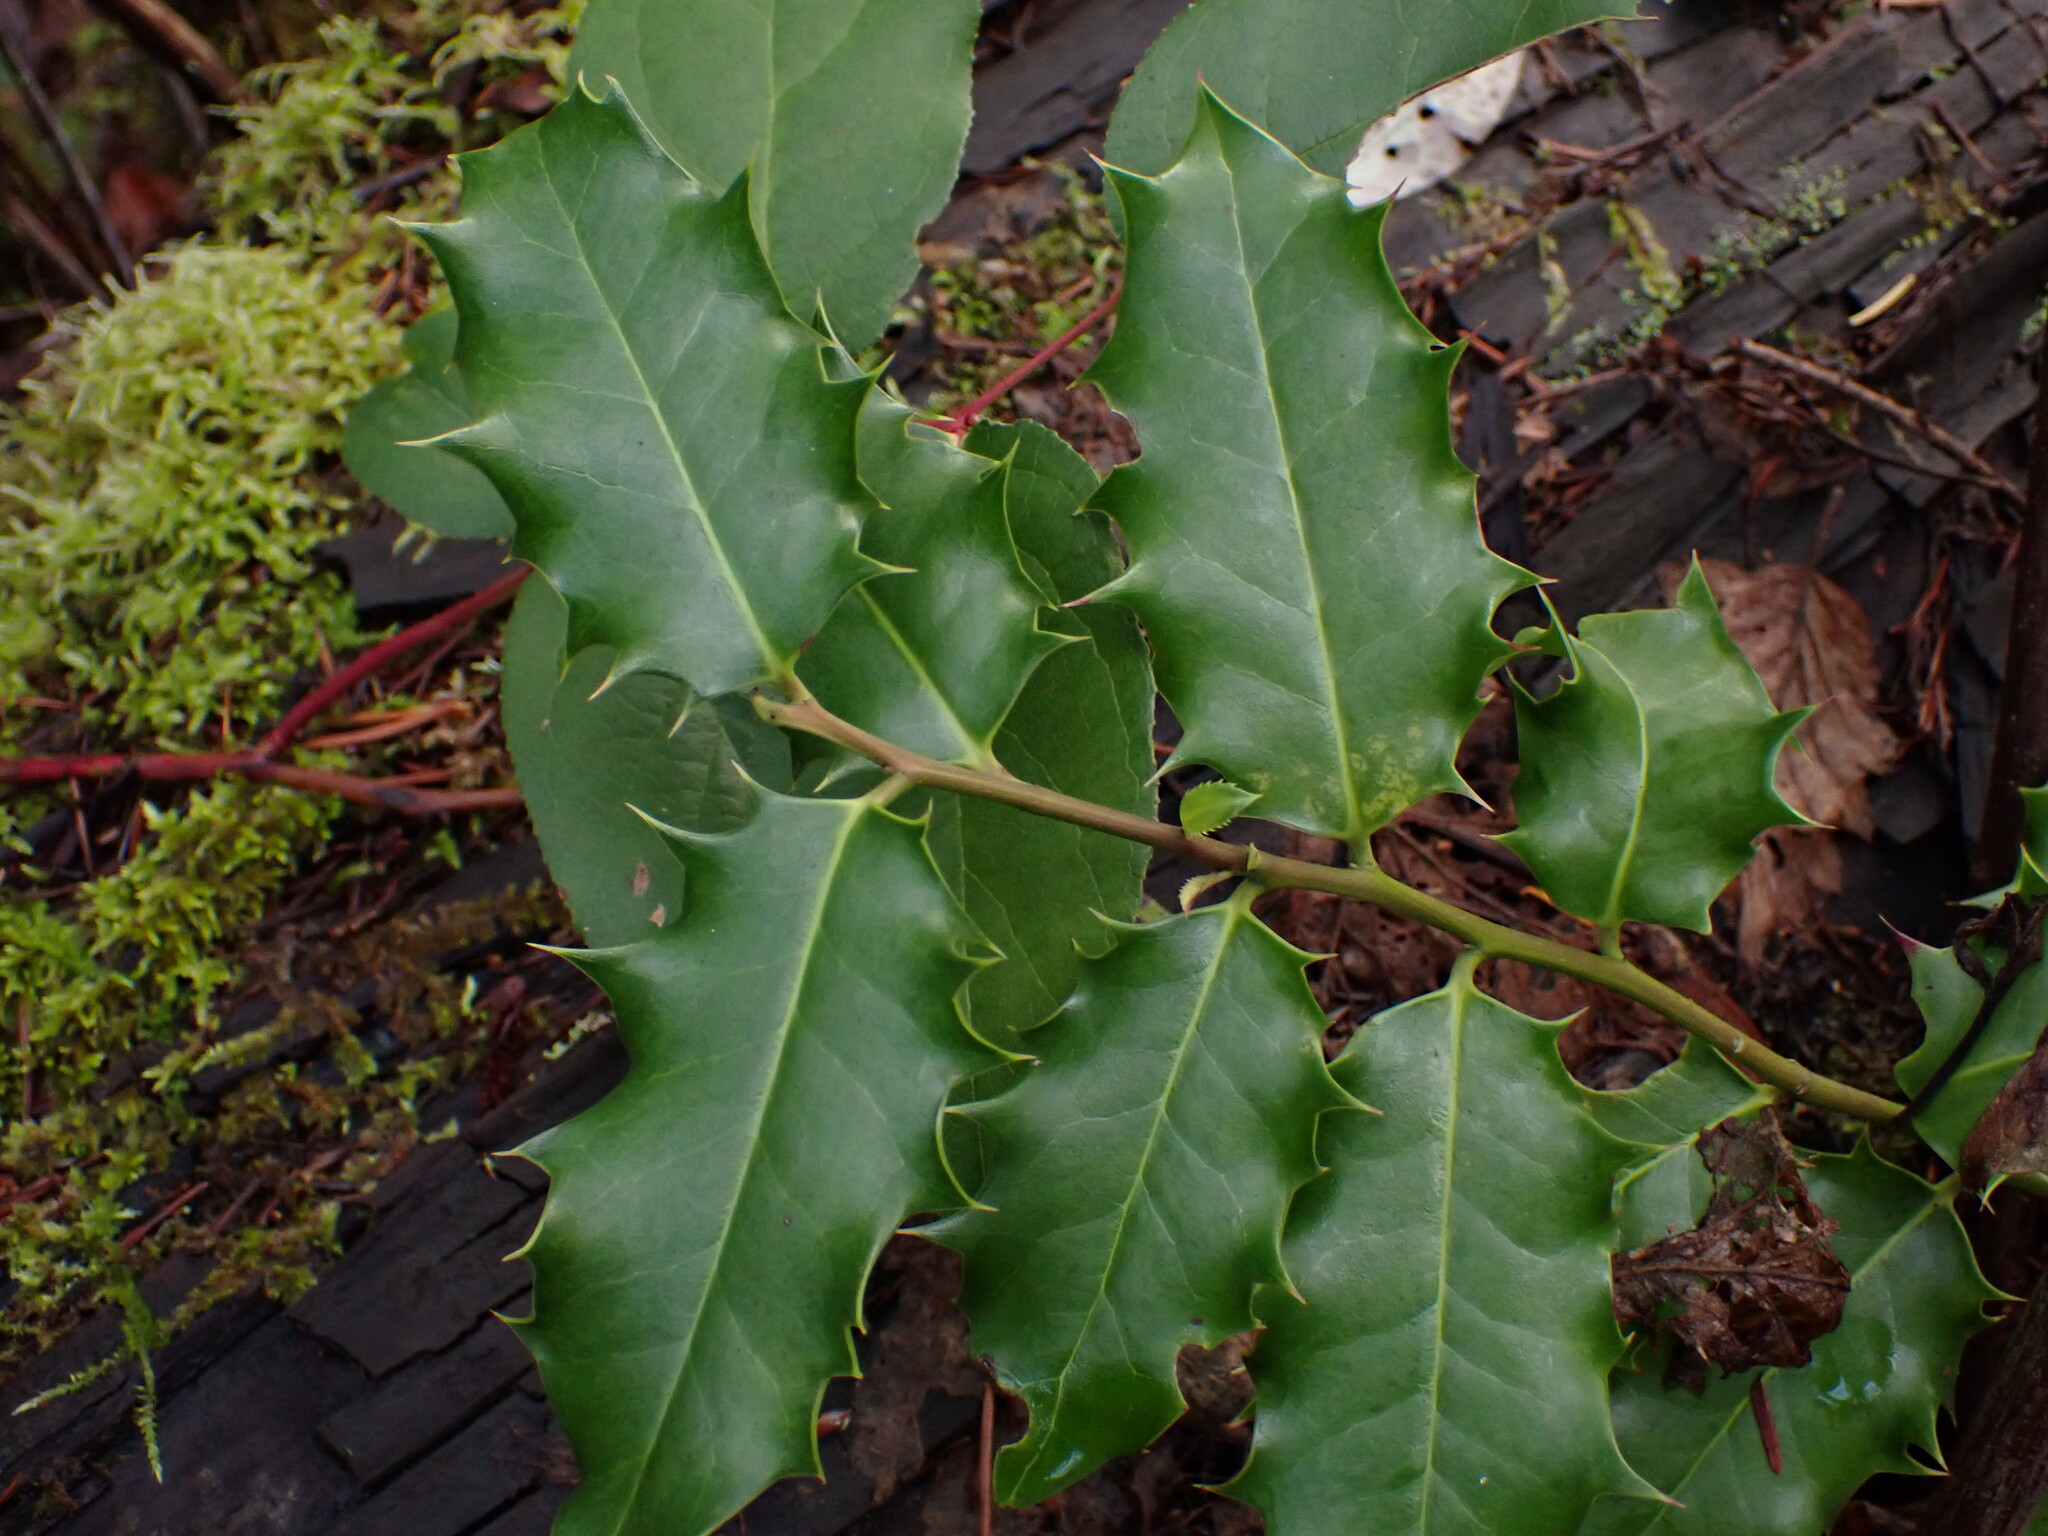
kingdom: Plantae
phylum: Tracheophyta
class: Magnoliopsida
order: Aquifoliales
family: Aquifoliaceae
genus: Ilex
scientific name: Ilex aquifolium
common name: English holly
